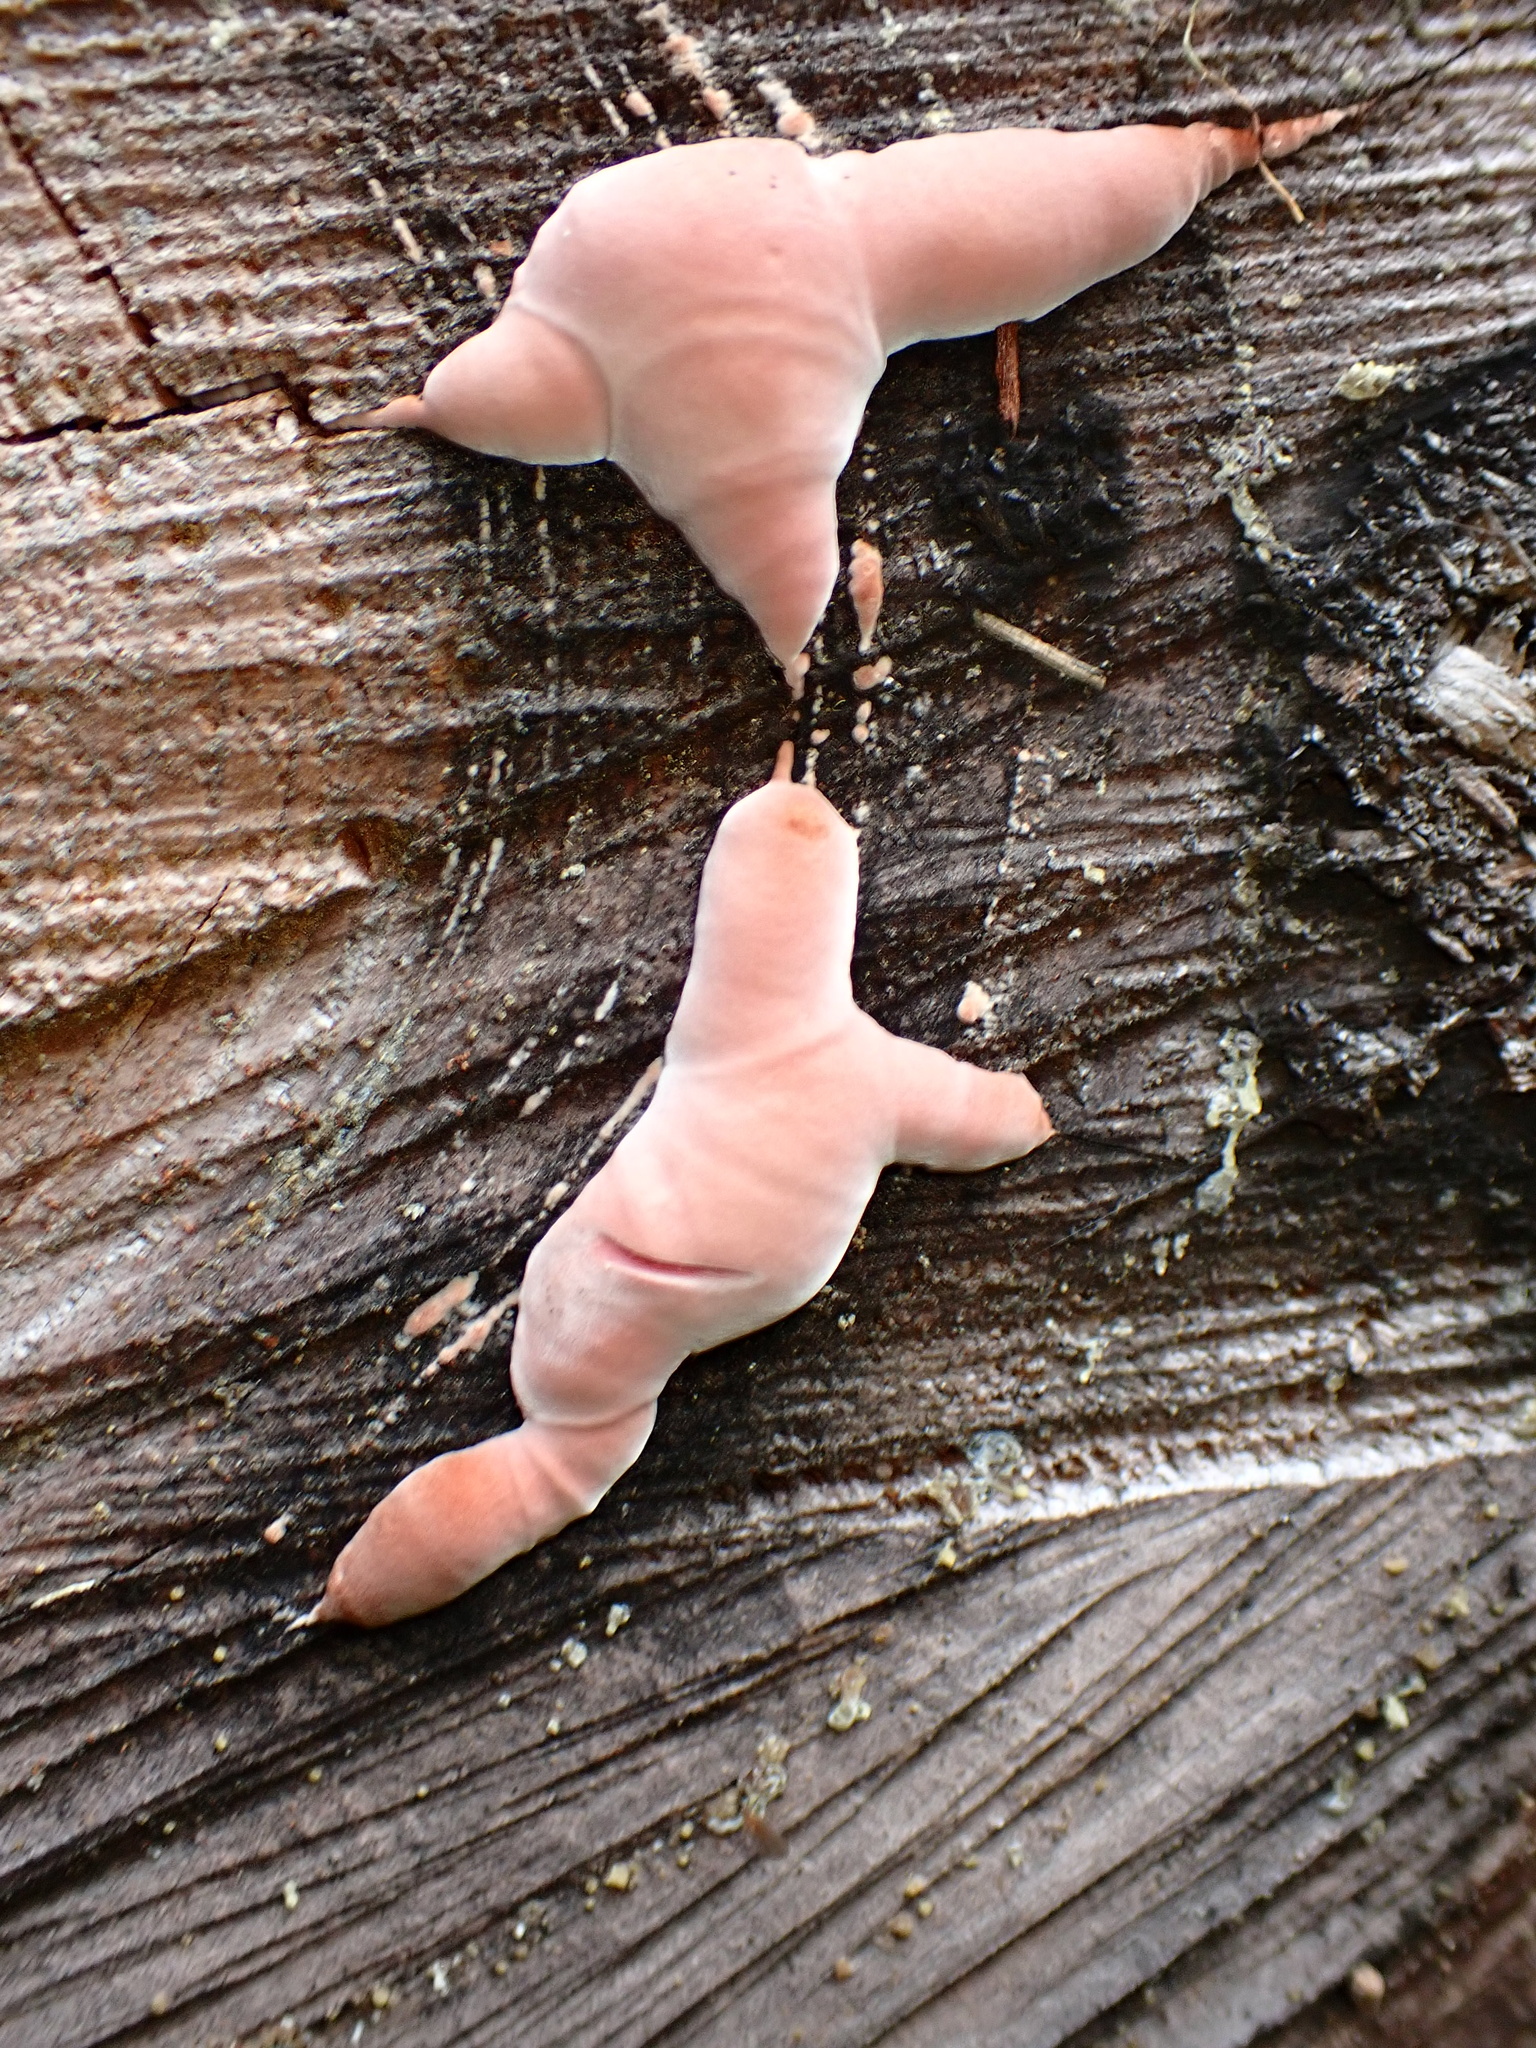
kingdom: Fungi
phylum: Basidiomycota
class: Agaricomycetes
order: Polyporales
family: Fomitopsidaceae
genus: Rhodofomes
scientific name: Rhodofomes cajanderi
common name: Rosy conk
